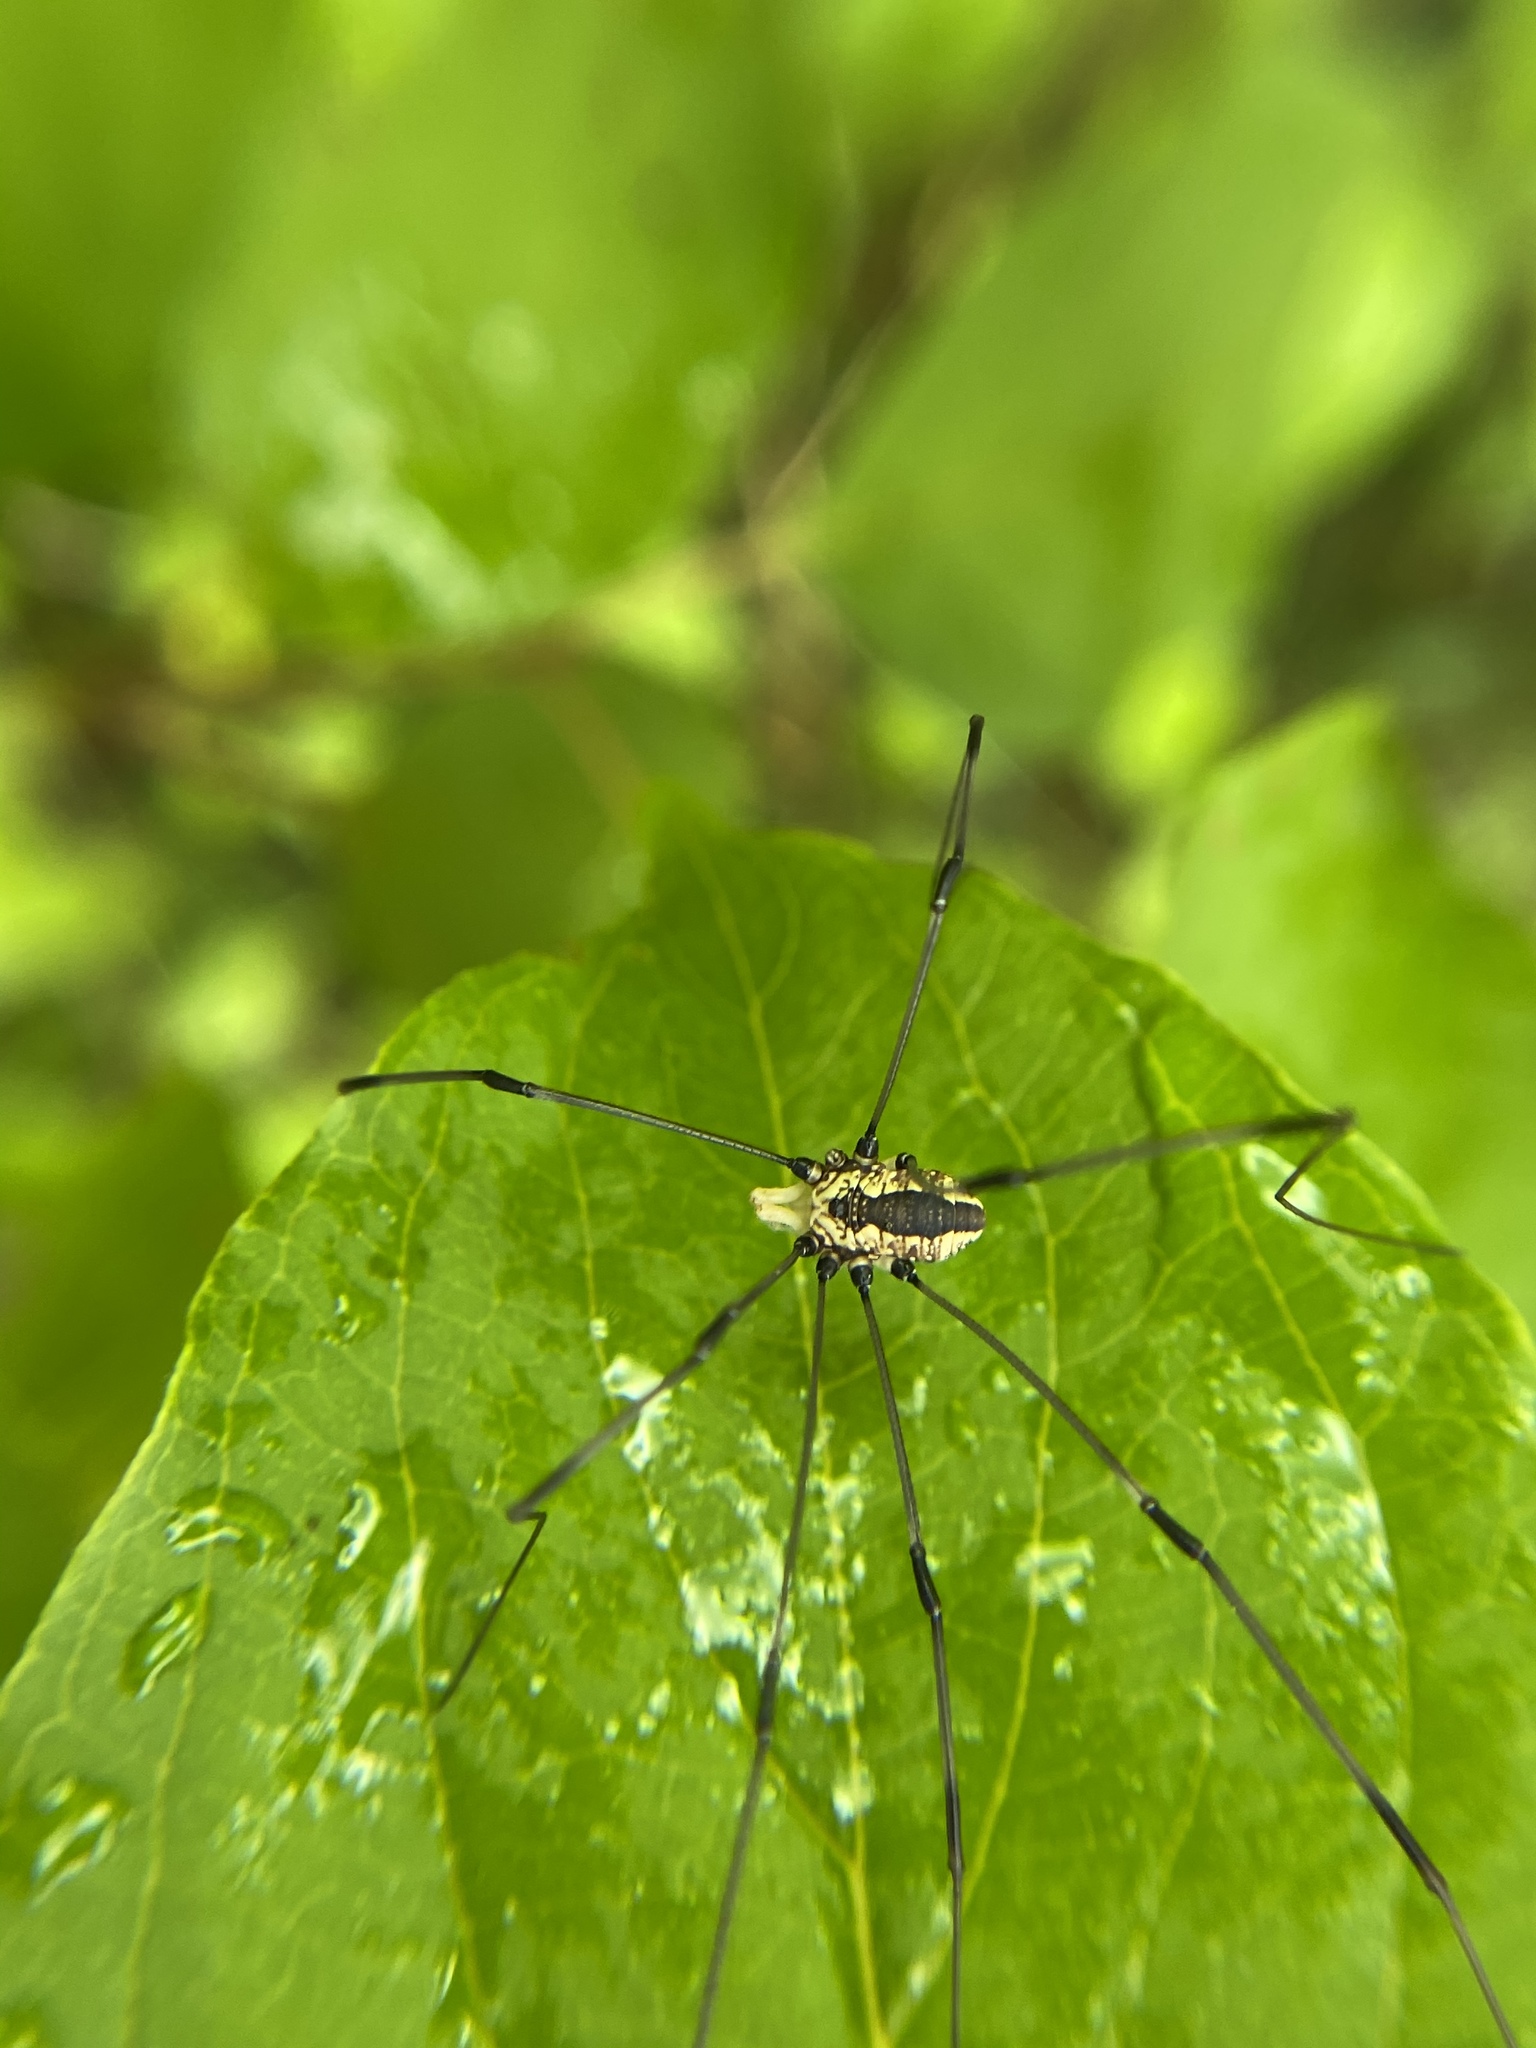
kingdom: Animalia
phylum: Arthropoda
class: Arachnida
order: Opiliones
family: Sclerosomatidae
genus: Leiobunum
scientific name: Leiobunum vittatum
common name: Eastern harvestman
